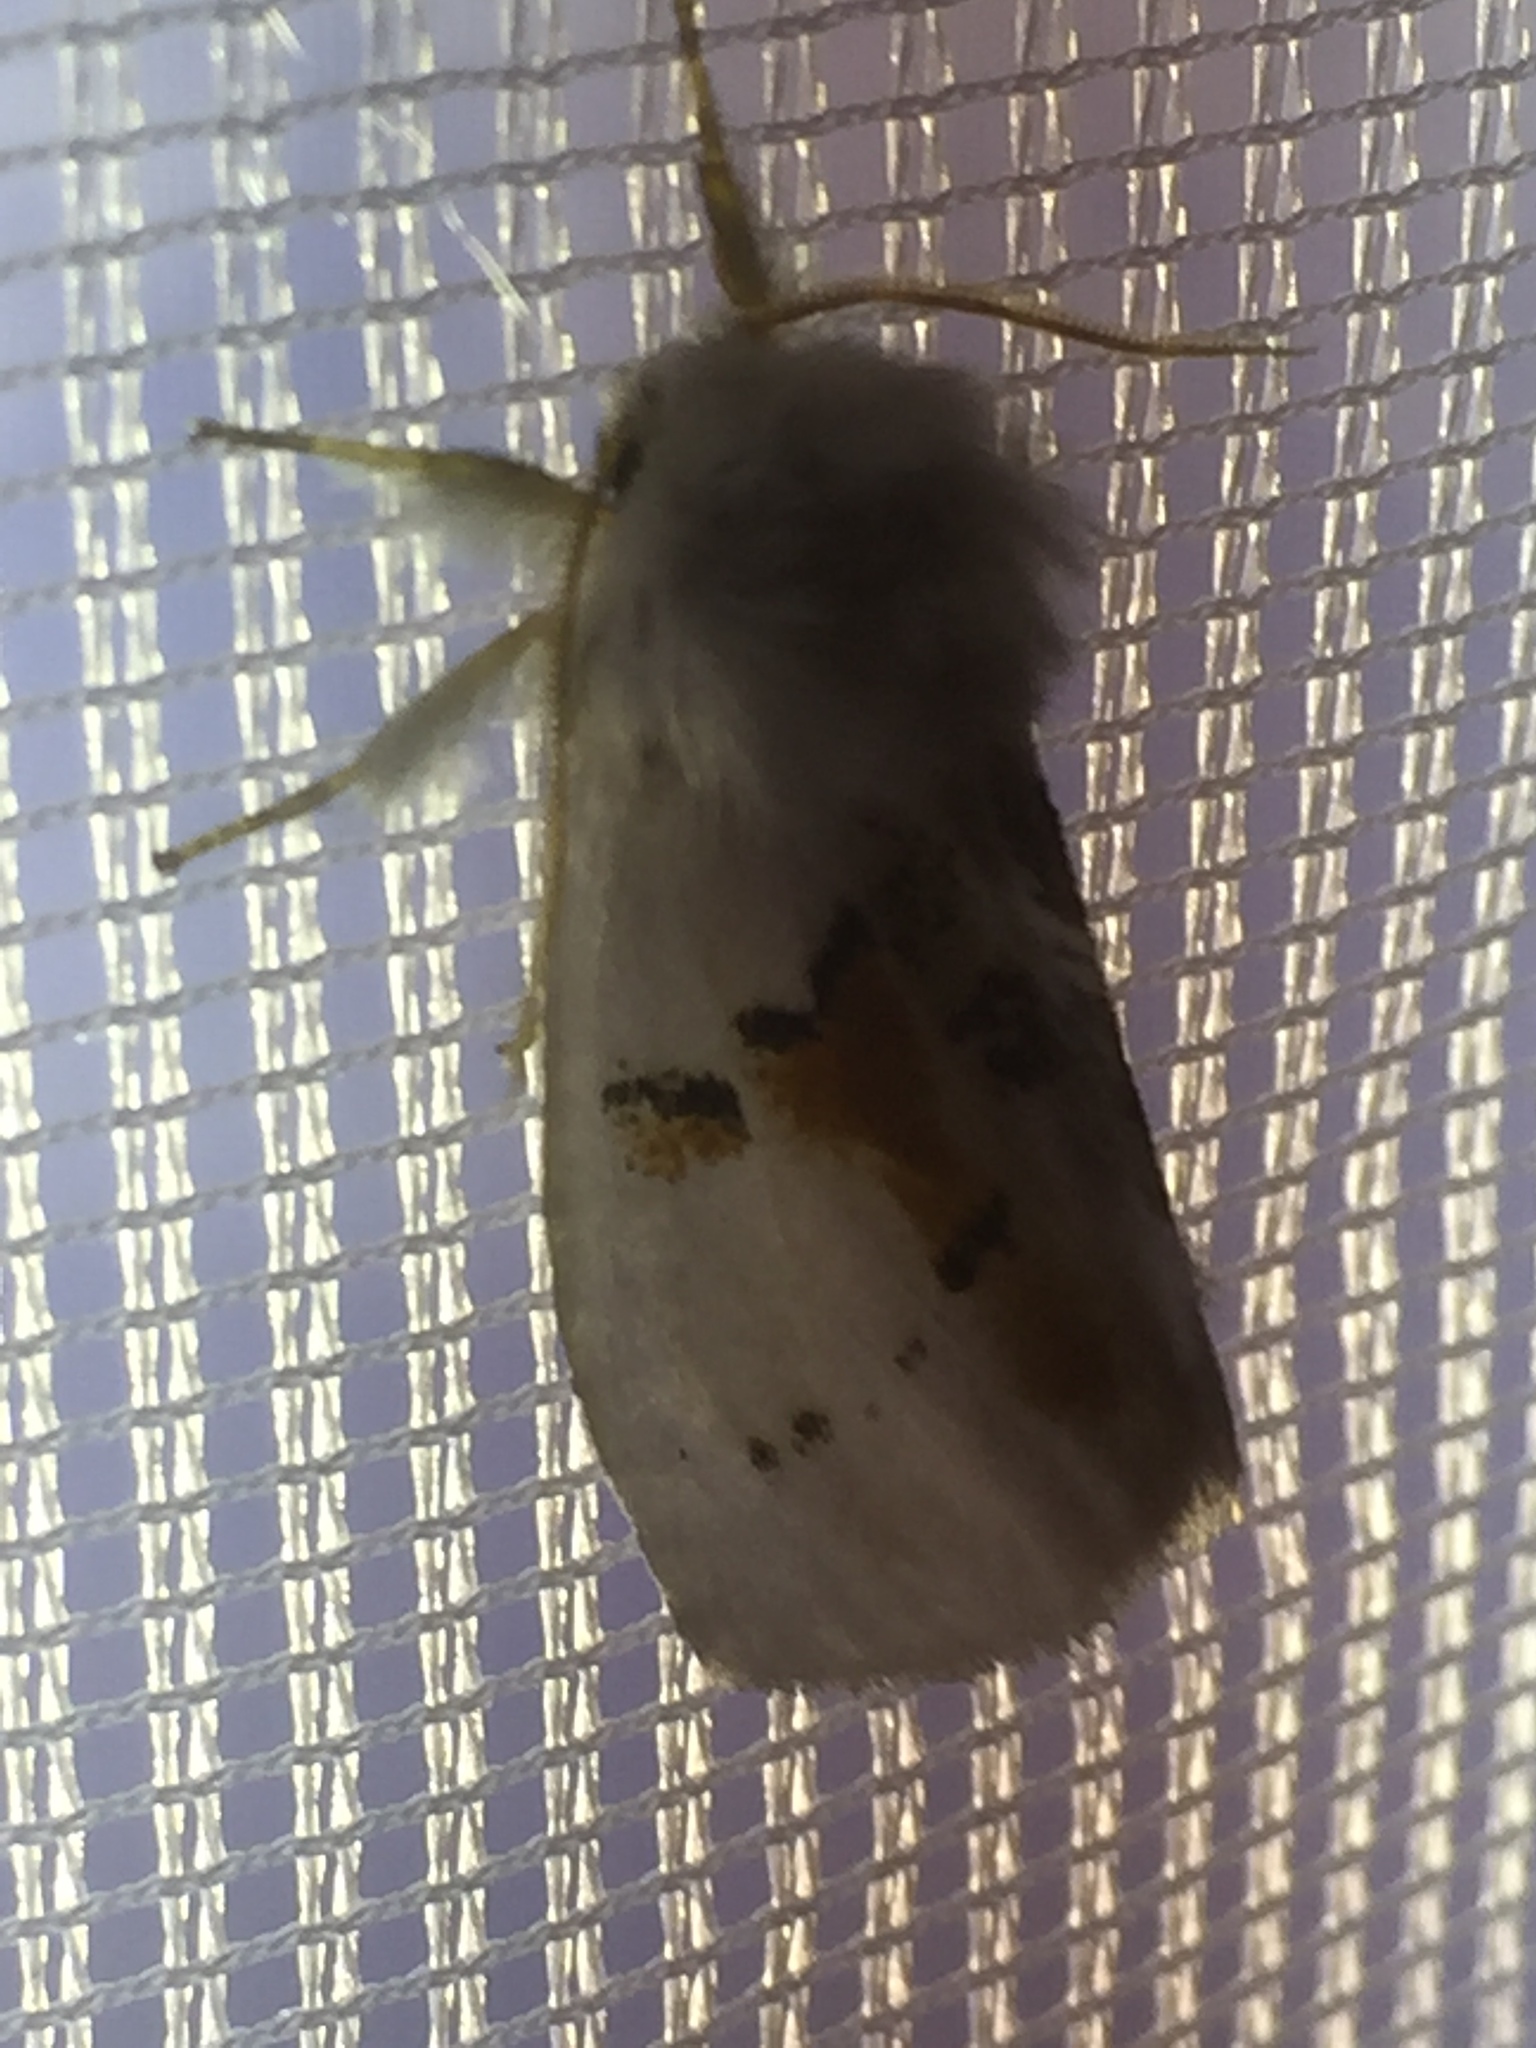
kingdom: Animalia
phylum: Arthropoda
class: Insecta
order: Lepidoptera
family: Notodontidae
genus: Leucodonta
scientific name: Leucodonta bicoloria
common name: White prominent
